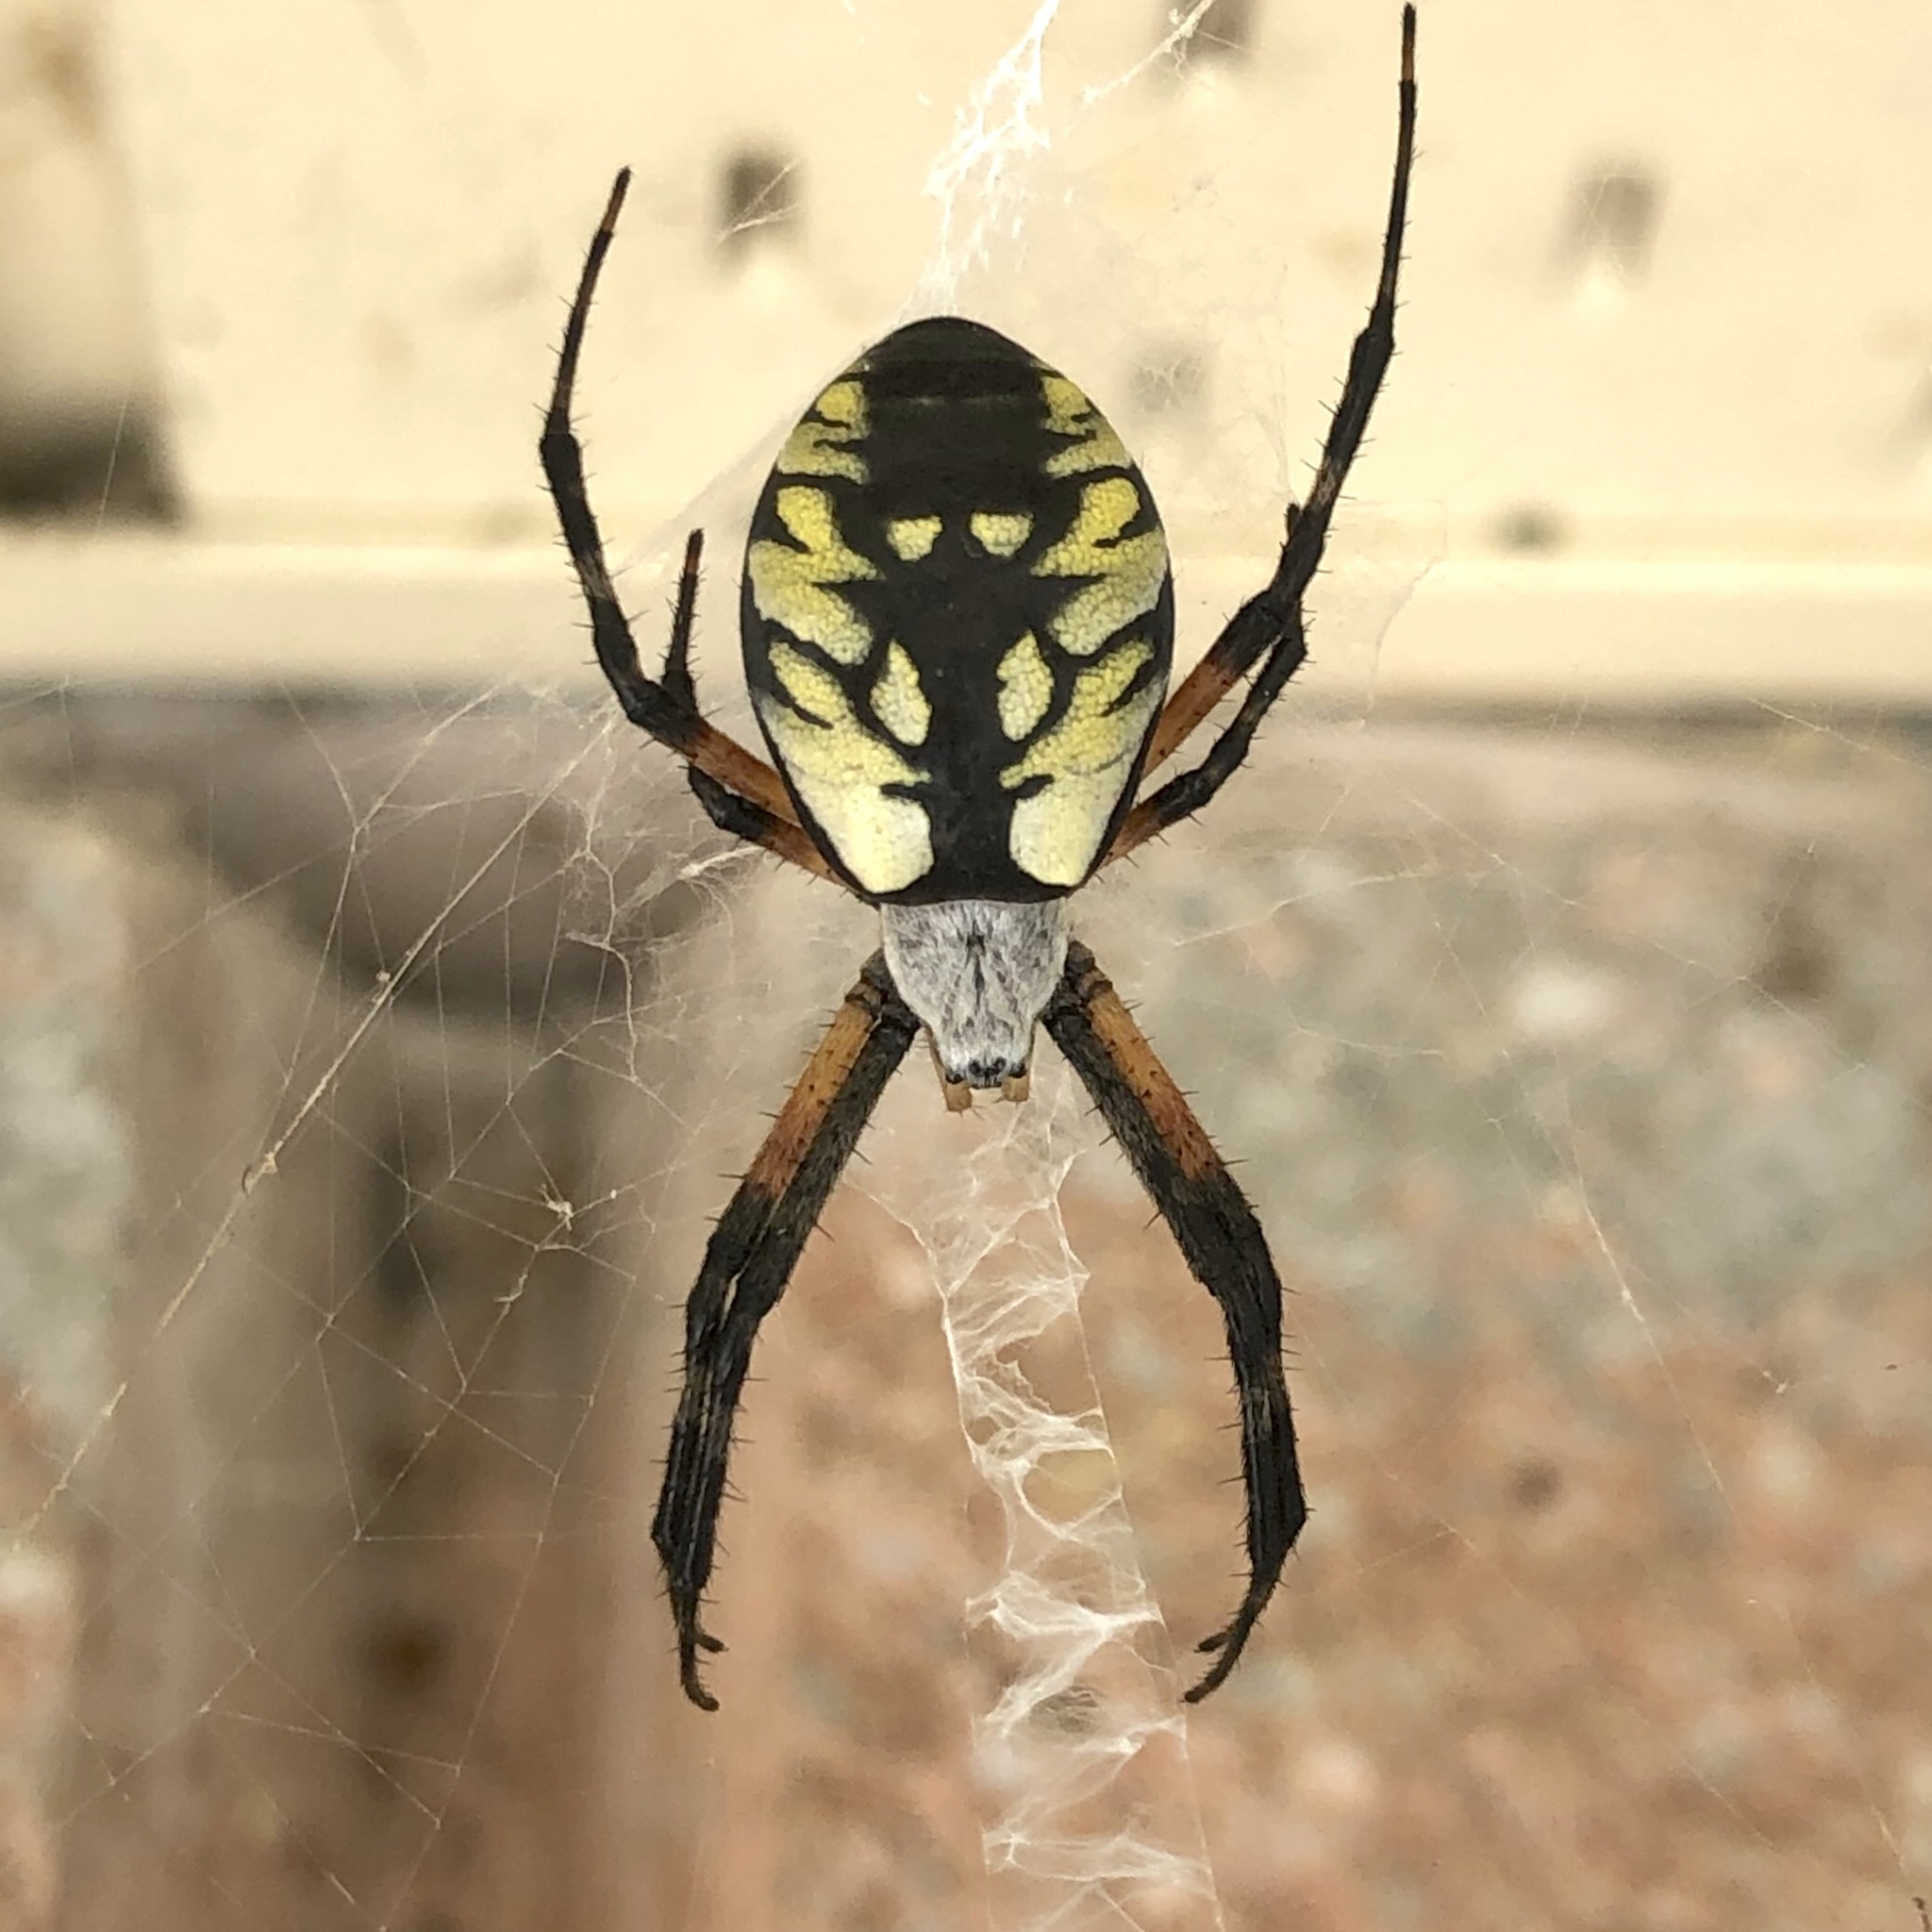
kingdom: Animalia
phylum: Arthropoda
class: Arachnida
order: Araneae
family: Araneidae
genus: Argiope
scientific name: Argiope aurantia
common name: Orb weavers
